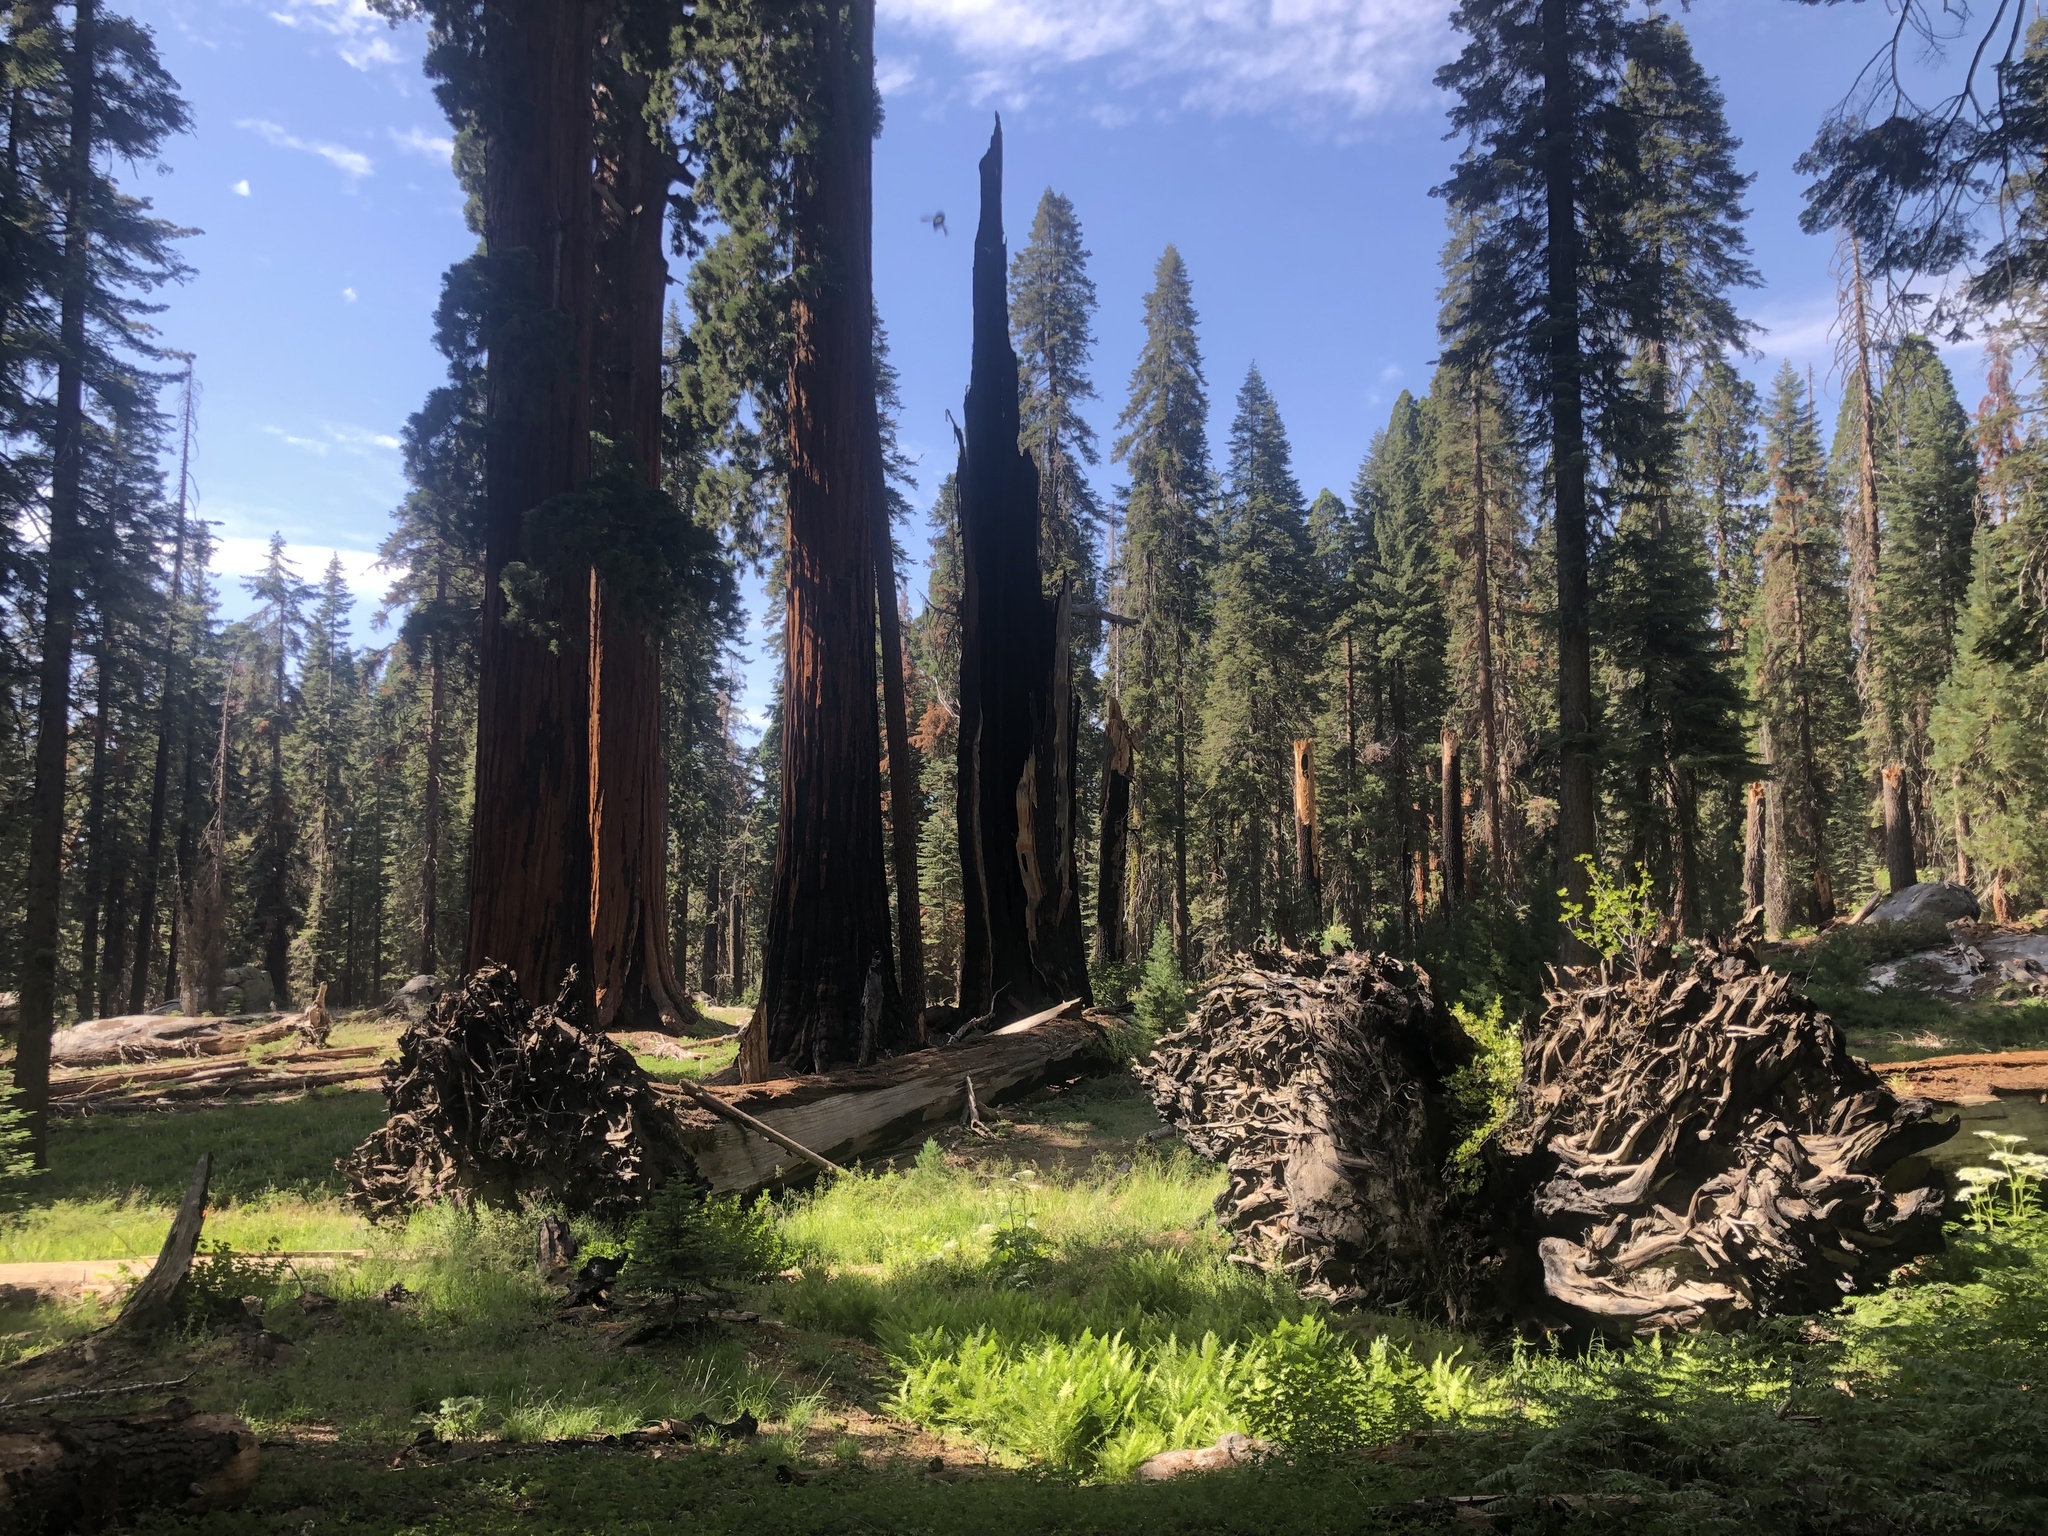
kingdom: Plantae
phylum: Tracheophyta
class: Pinopsida
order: Pinales
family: Cupressaceae
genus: Sequoiadendron
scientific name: Sequoiadendron giganteum
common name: Wellingtonia
